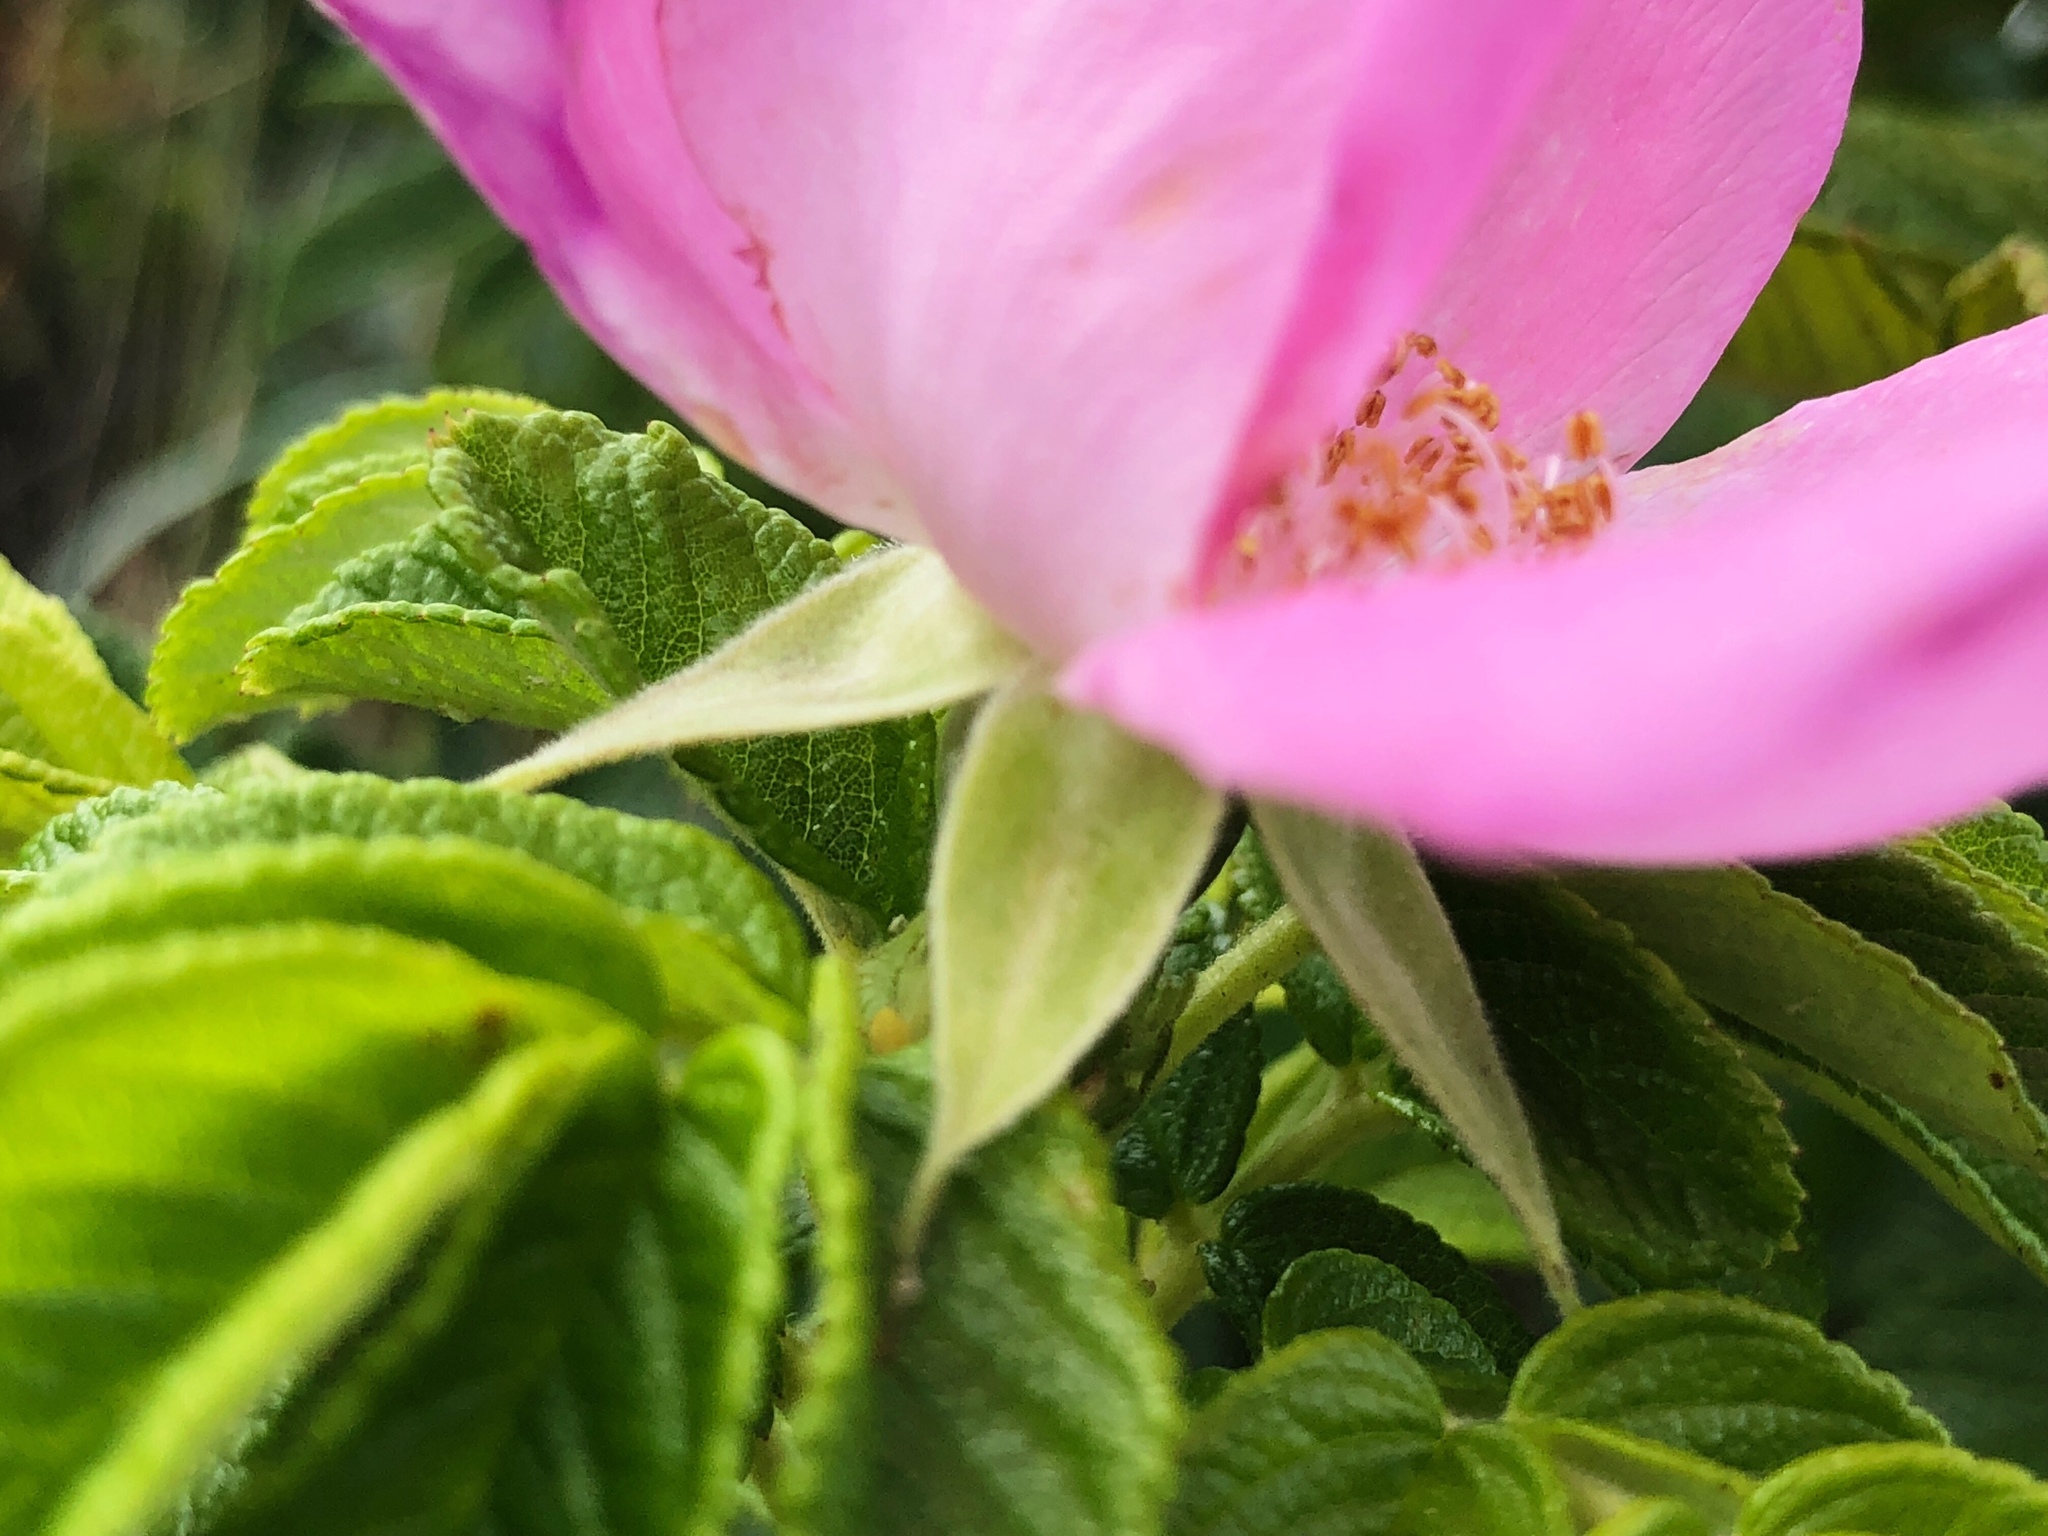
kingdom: Plantae
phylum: Tracheophyta
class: Magnoliopsida
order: Rosales
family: Rosaceae
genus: Rosa
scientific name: Rosa rugosa
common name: Japanese rose
